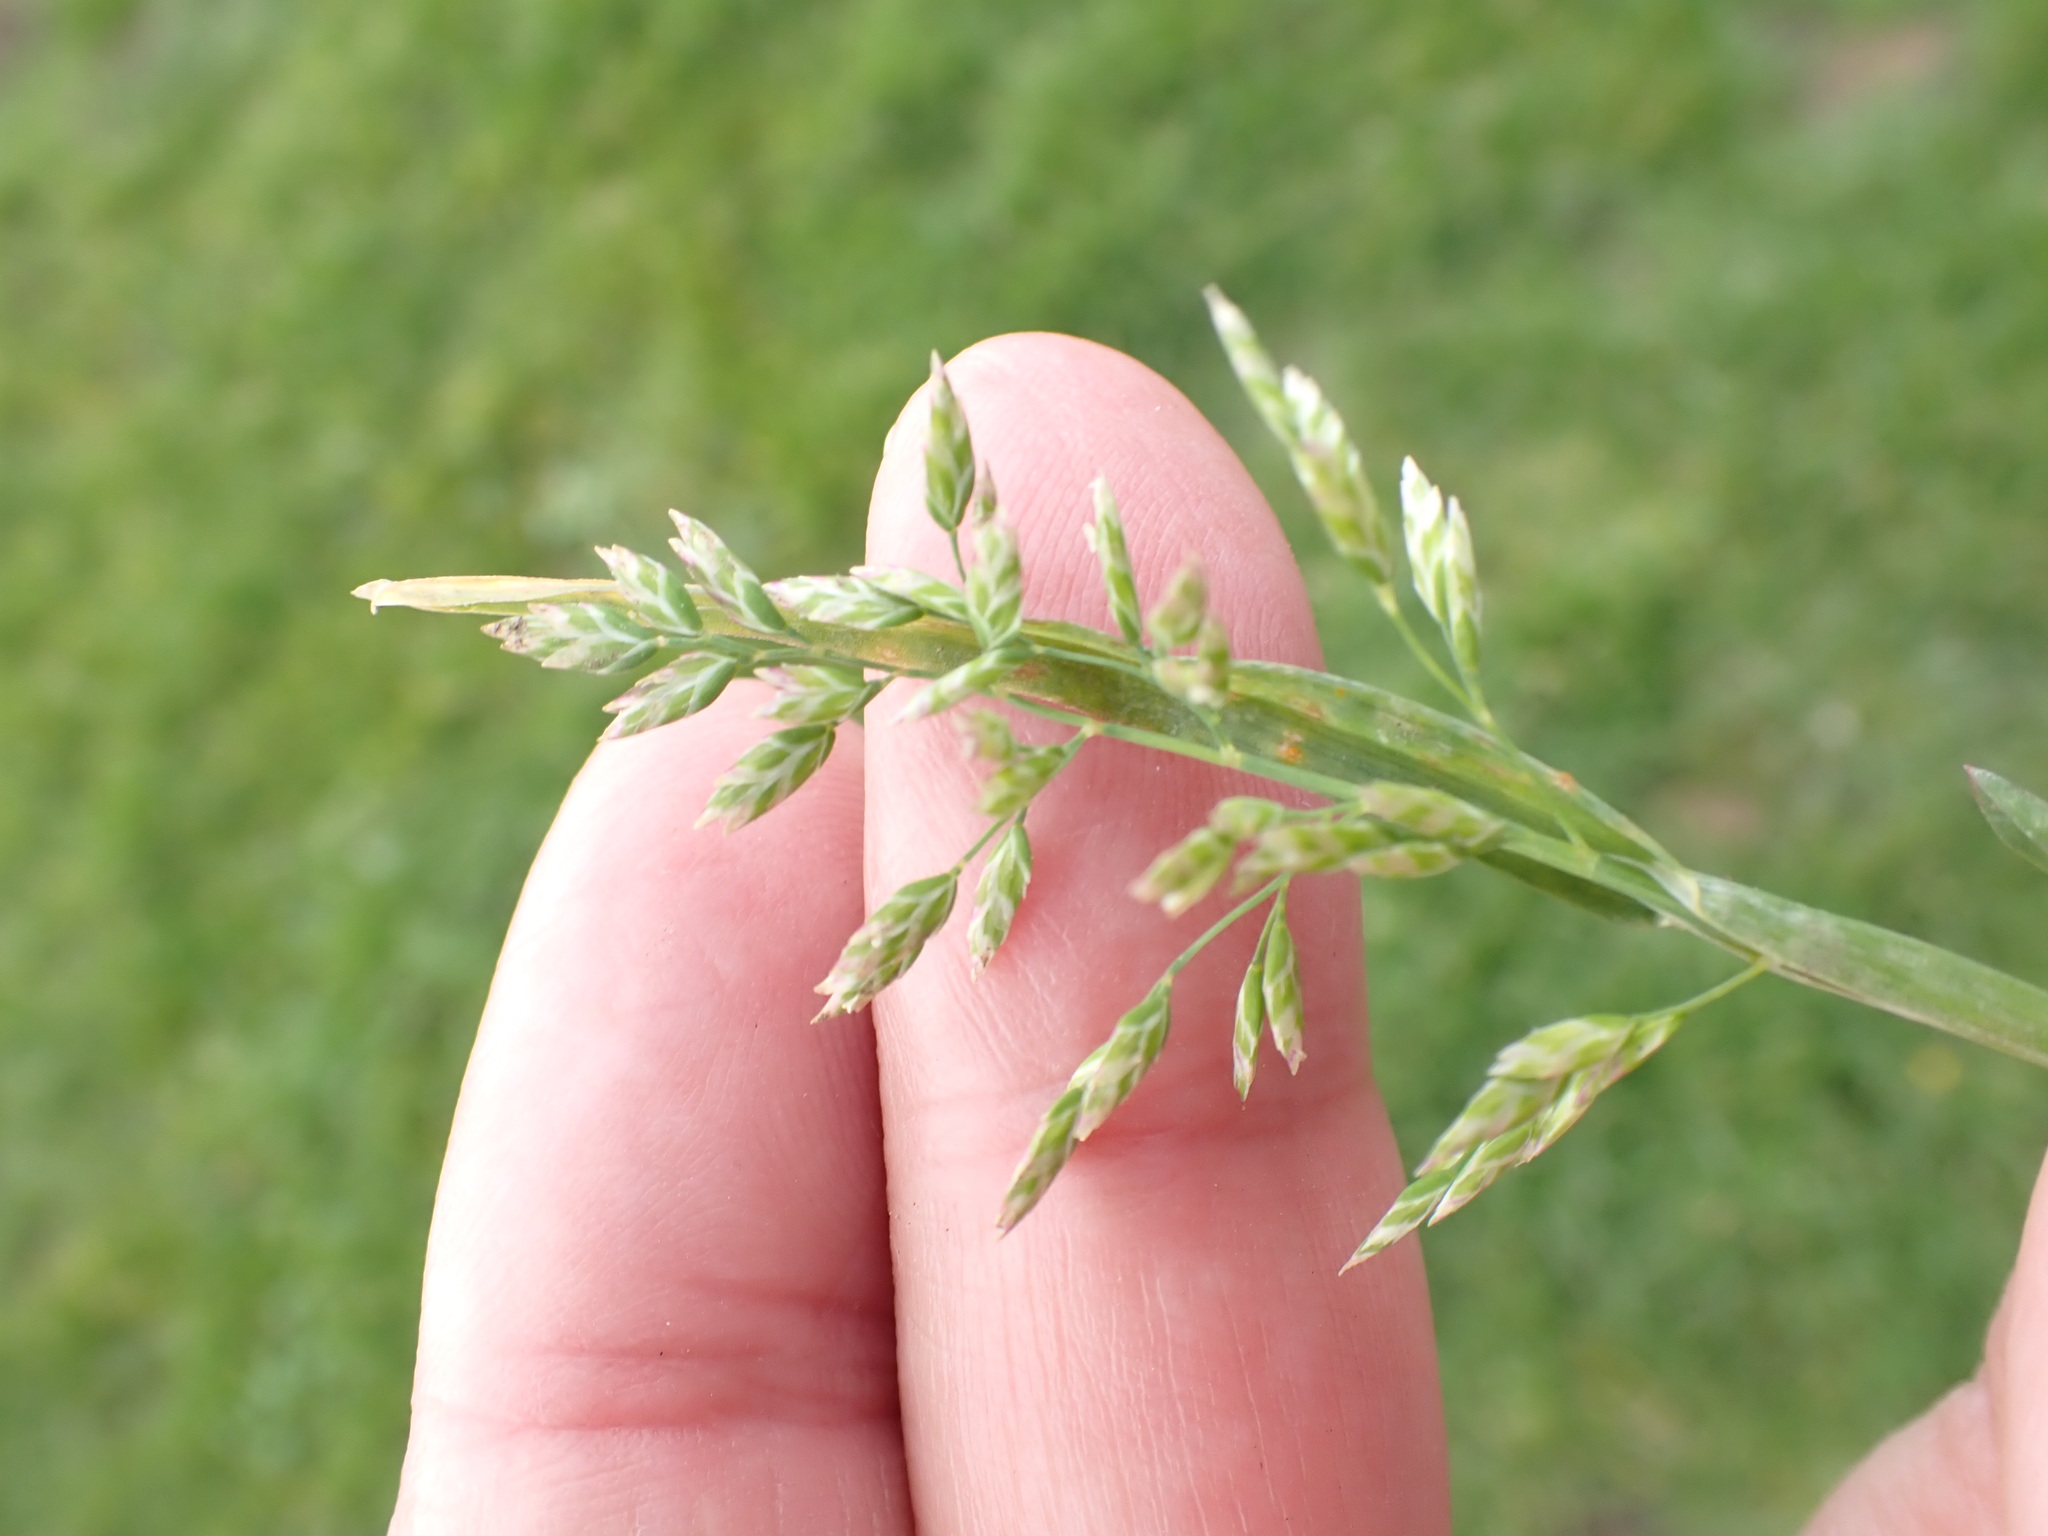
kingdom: Plantae
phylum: Tracheophyta
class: Liliopsida
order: Poales
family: Poaceae
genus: Poa
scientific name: Poa annua
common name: Annual bluegrass
